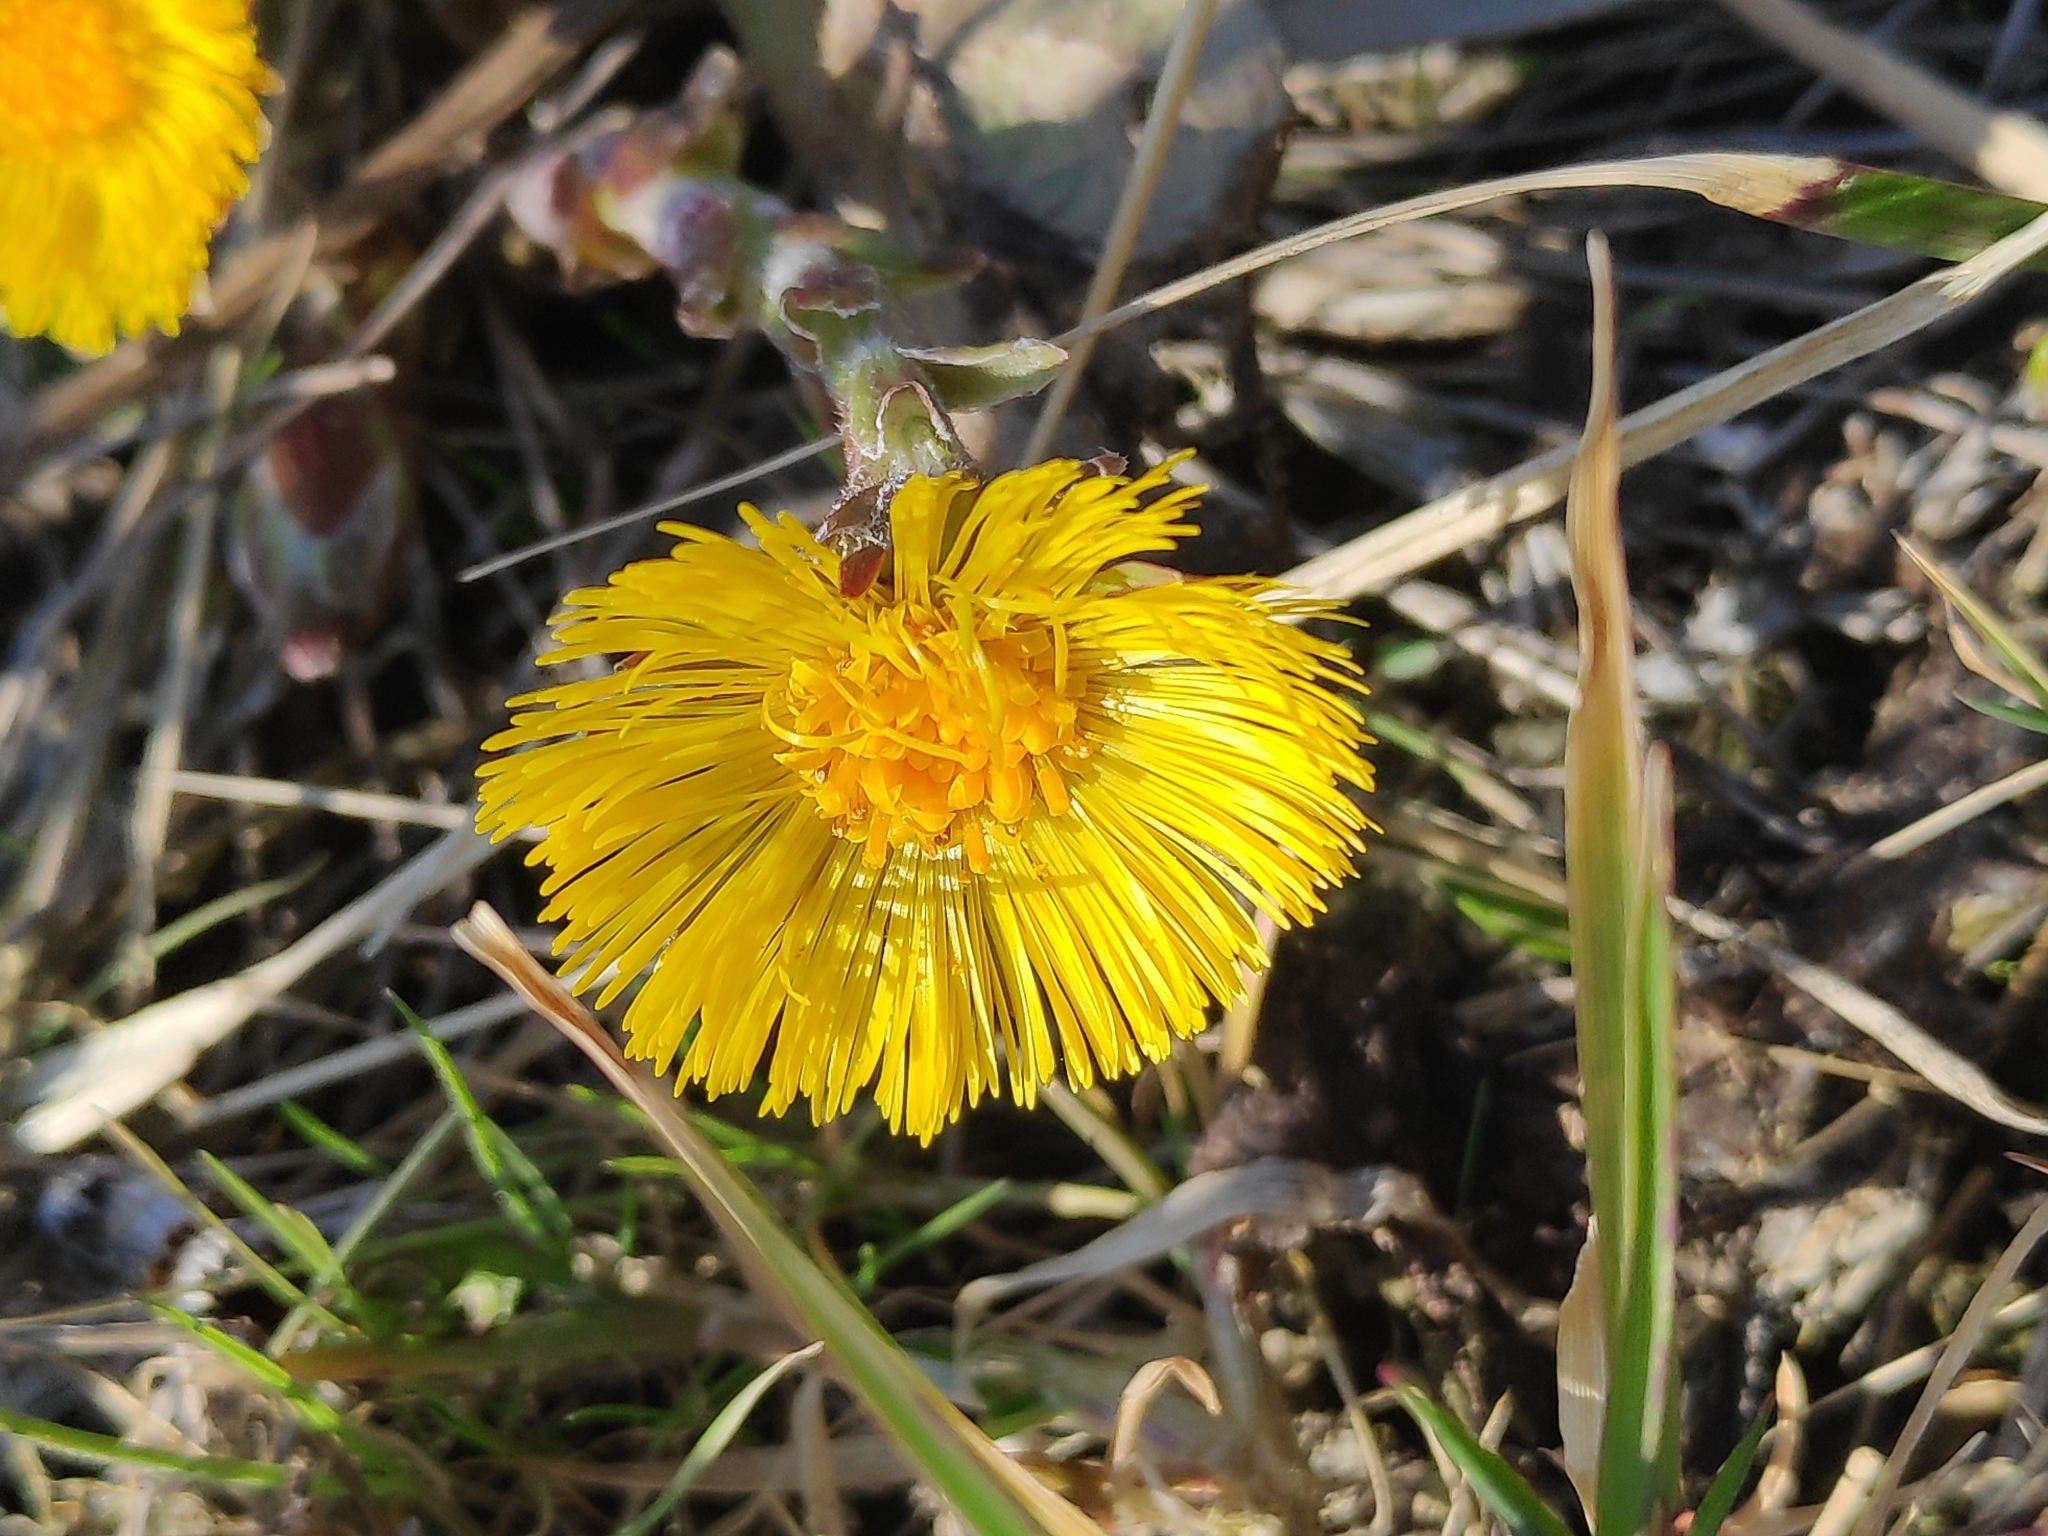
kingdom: Plantae
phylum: Tracheophyta
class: Magnoliopsida
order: Asterales
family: Asteraceae
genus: Tussilago
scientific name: Tussilago farfara
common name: Coltsfoot
